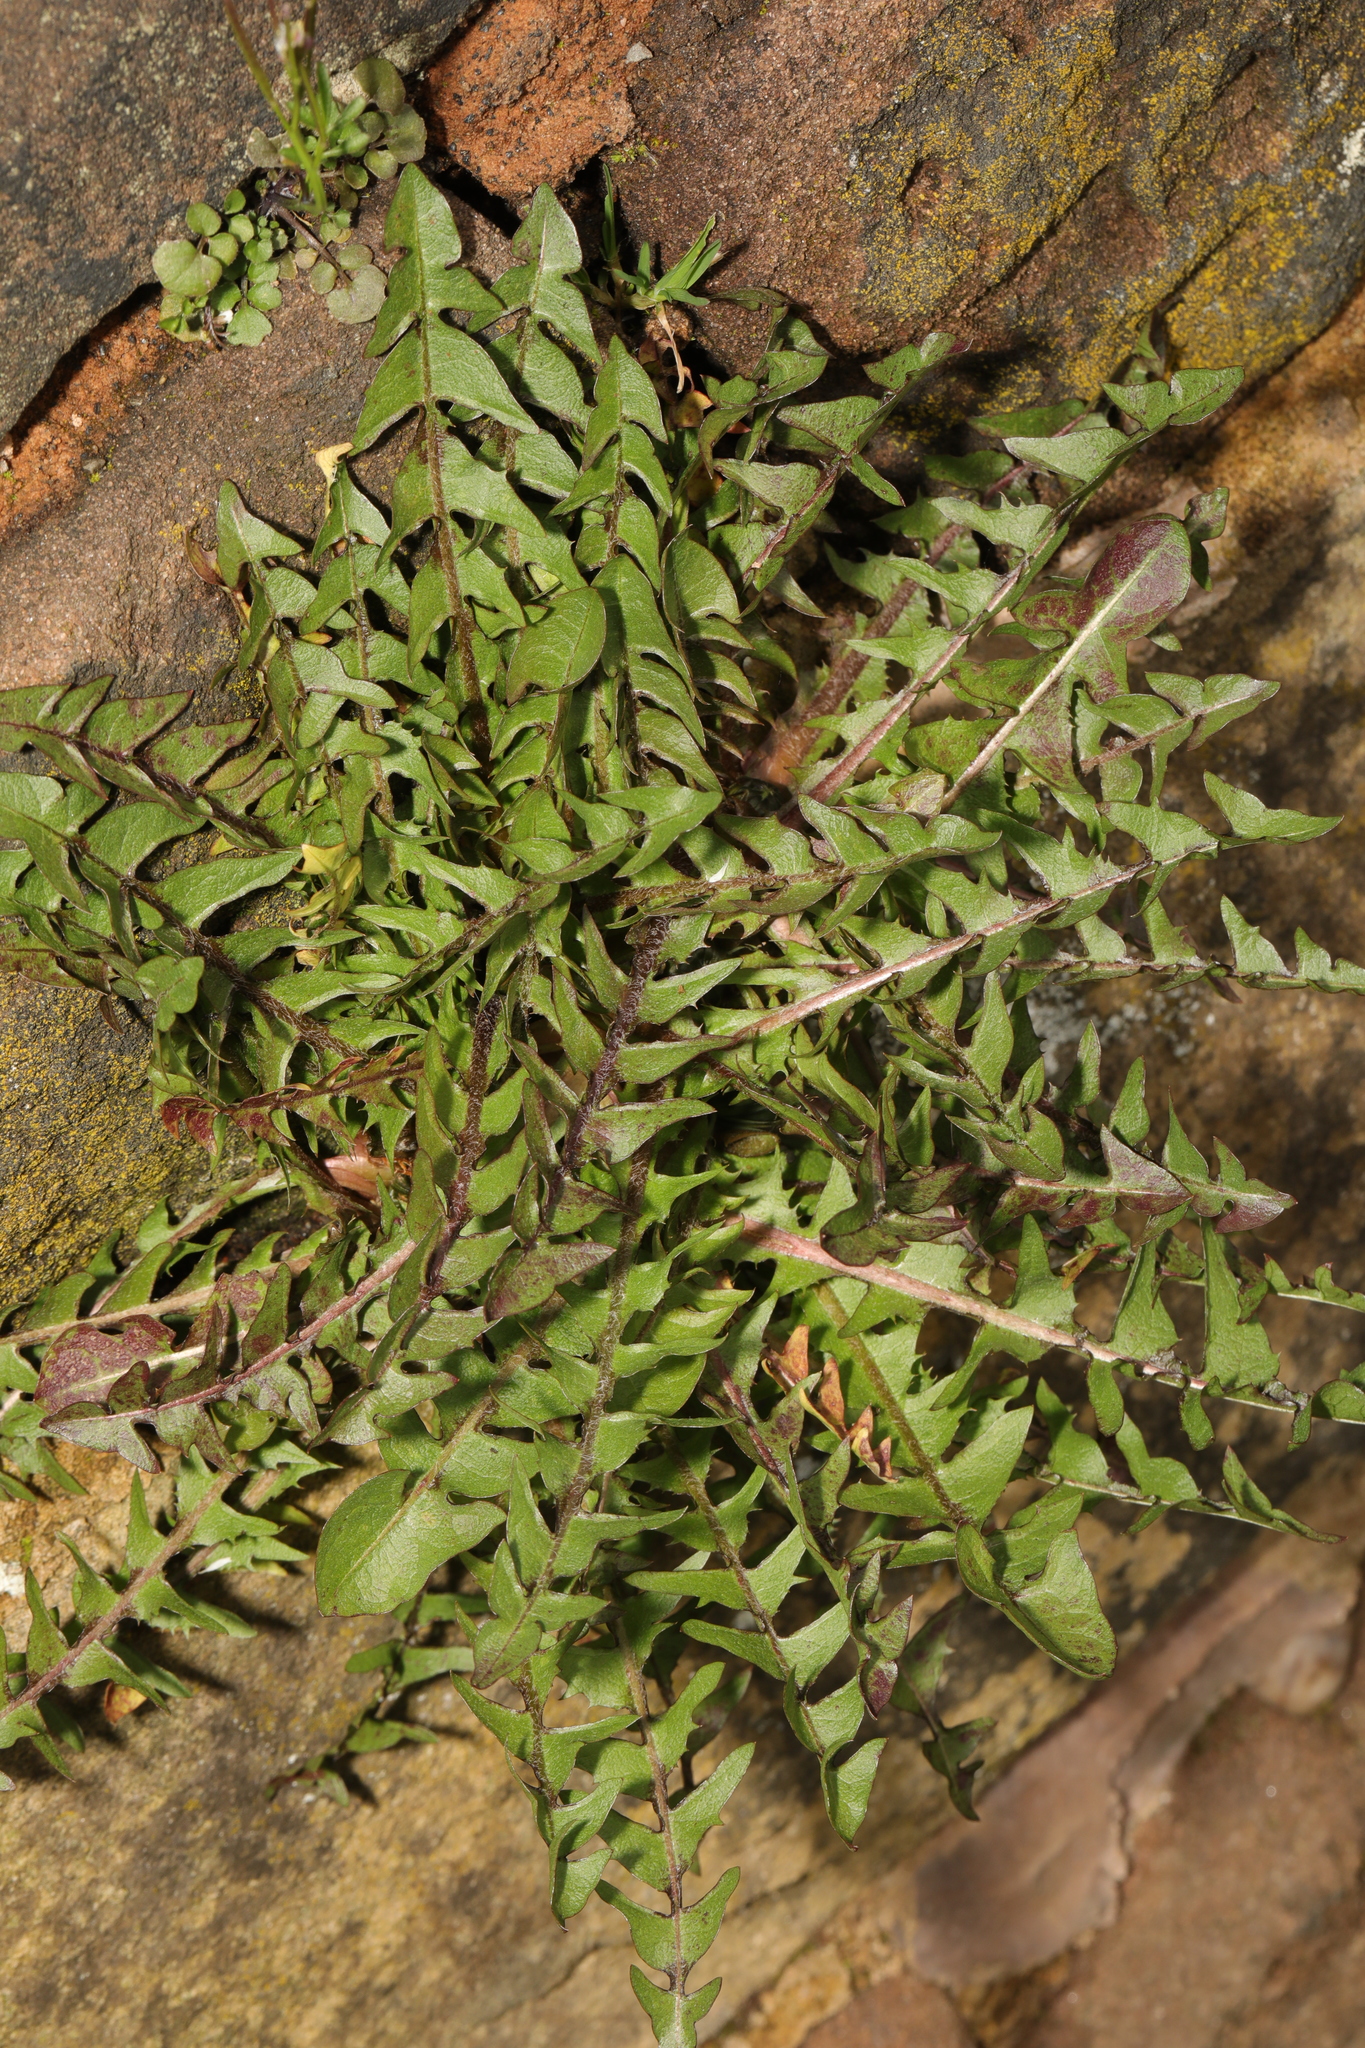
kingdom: Plantae
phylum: Tracheophyta
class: Magnoliopsida
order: Asterales
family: Asteraceae
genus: Taraxacum
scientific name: Taraxacum officinale
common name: Common dandelion
